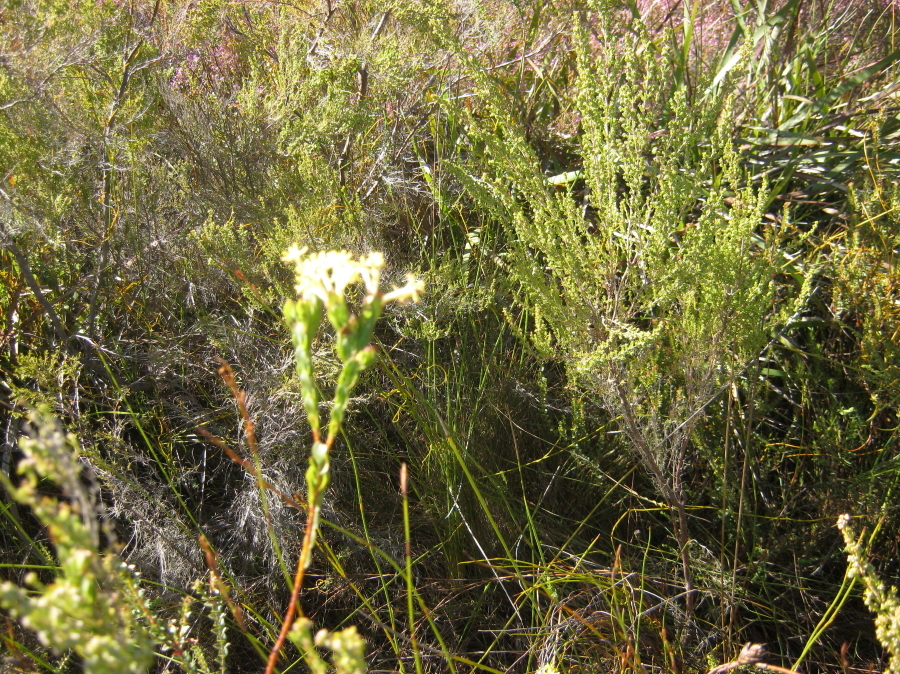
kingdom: Plantae
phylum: Tracheophyta
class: Magnoliopsida
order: Malvales
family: Thymelaeaceae
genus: Gnidia
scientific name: Gnidia oppositifolia
